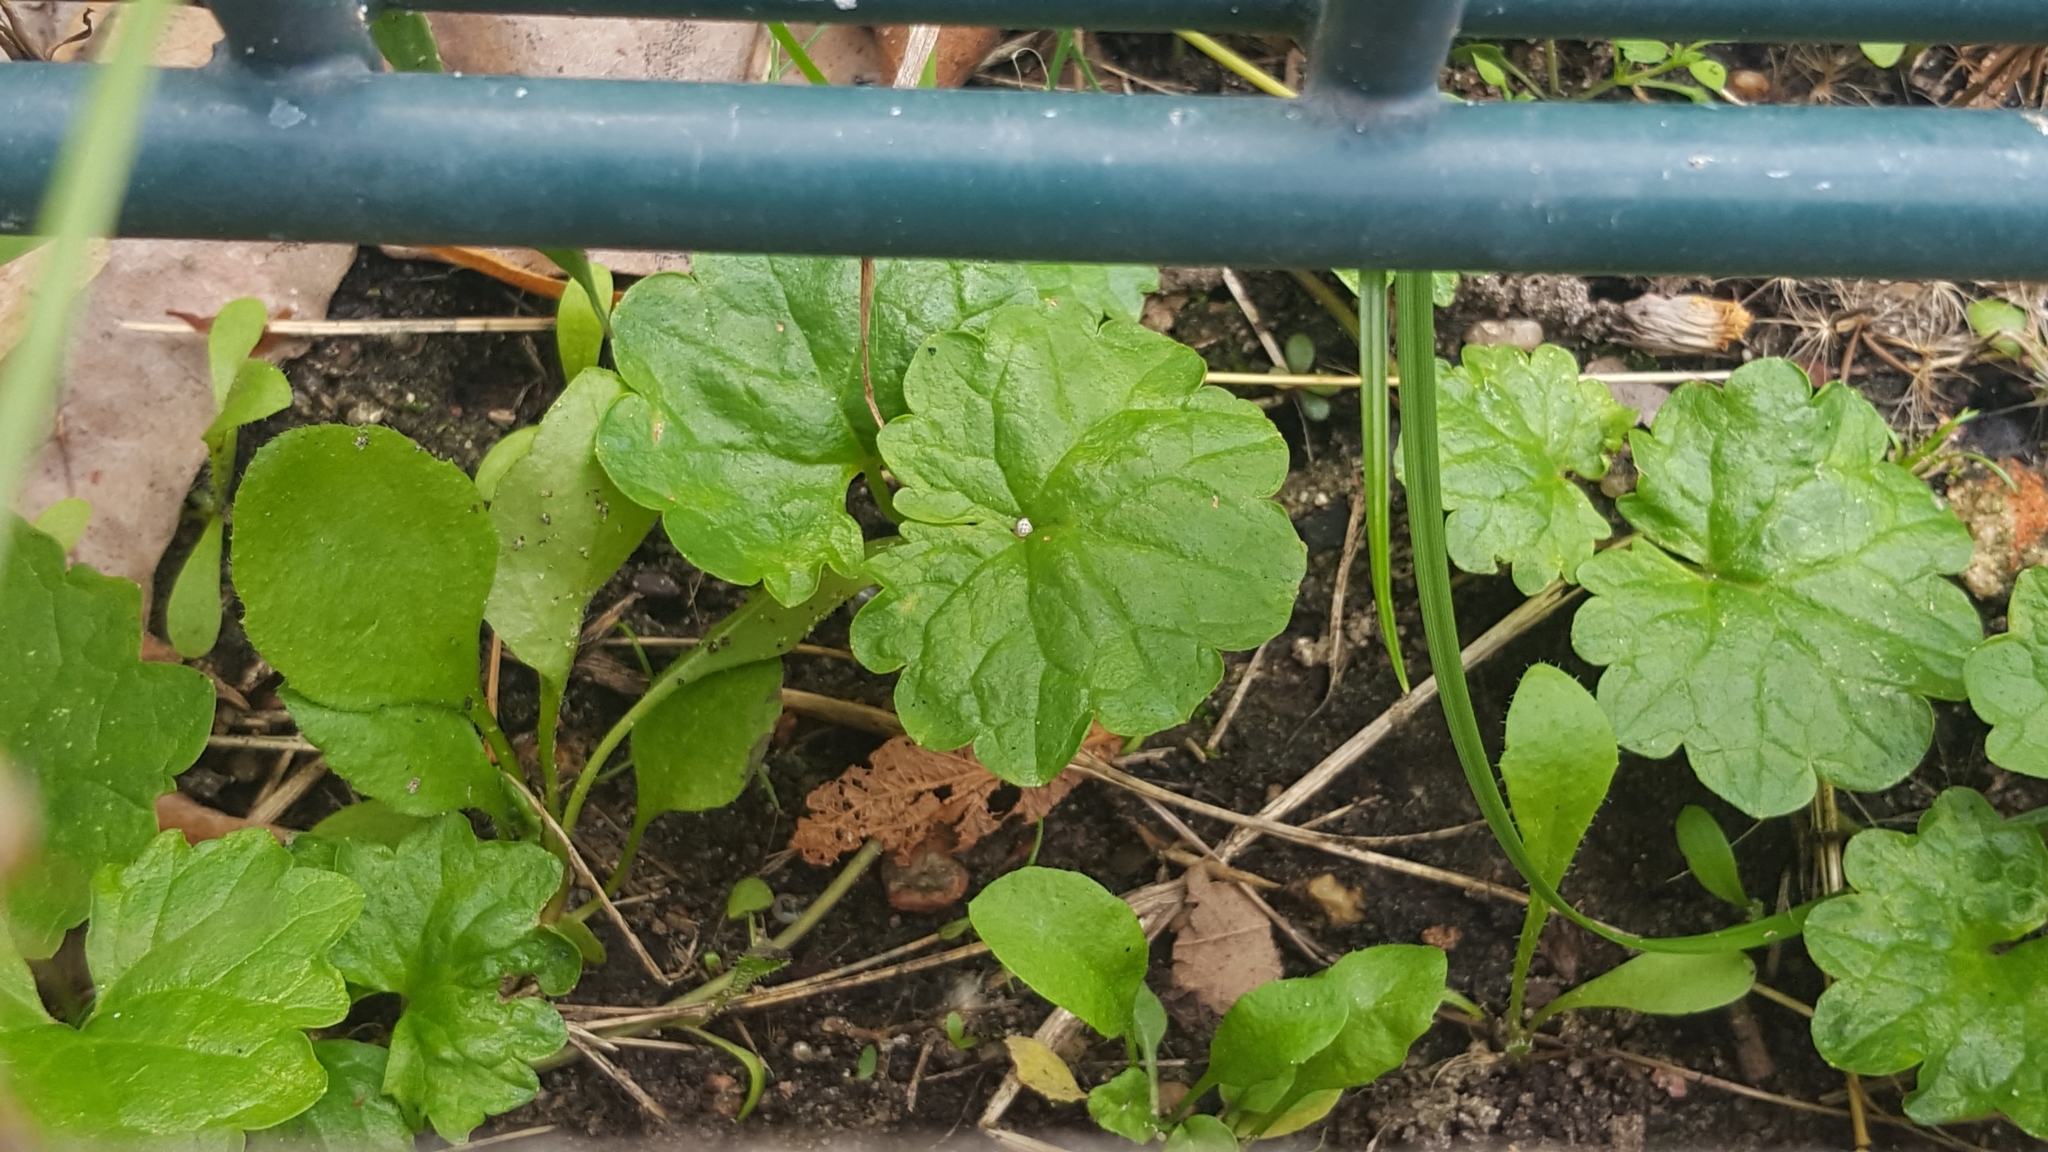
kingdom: Plantae
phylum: Tracheophyta
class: Magnoliopsida
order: Lamiales
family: Lamiaceae
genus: Glechoma
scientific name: Glechoma hederacea
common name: Ground ivy
